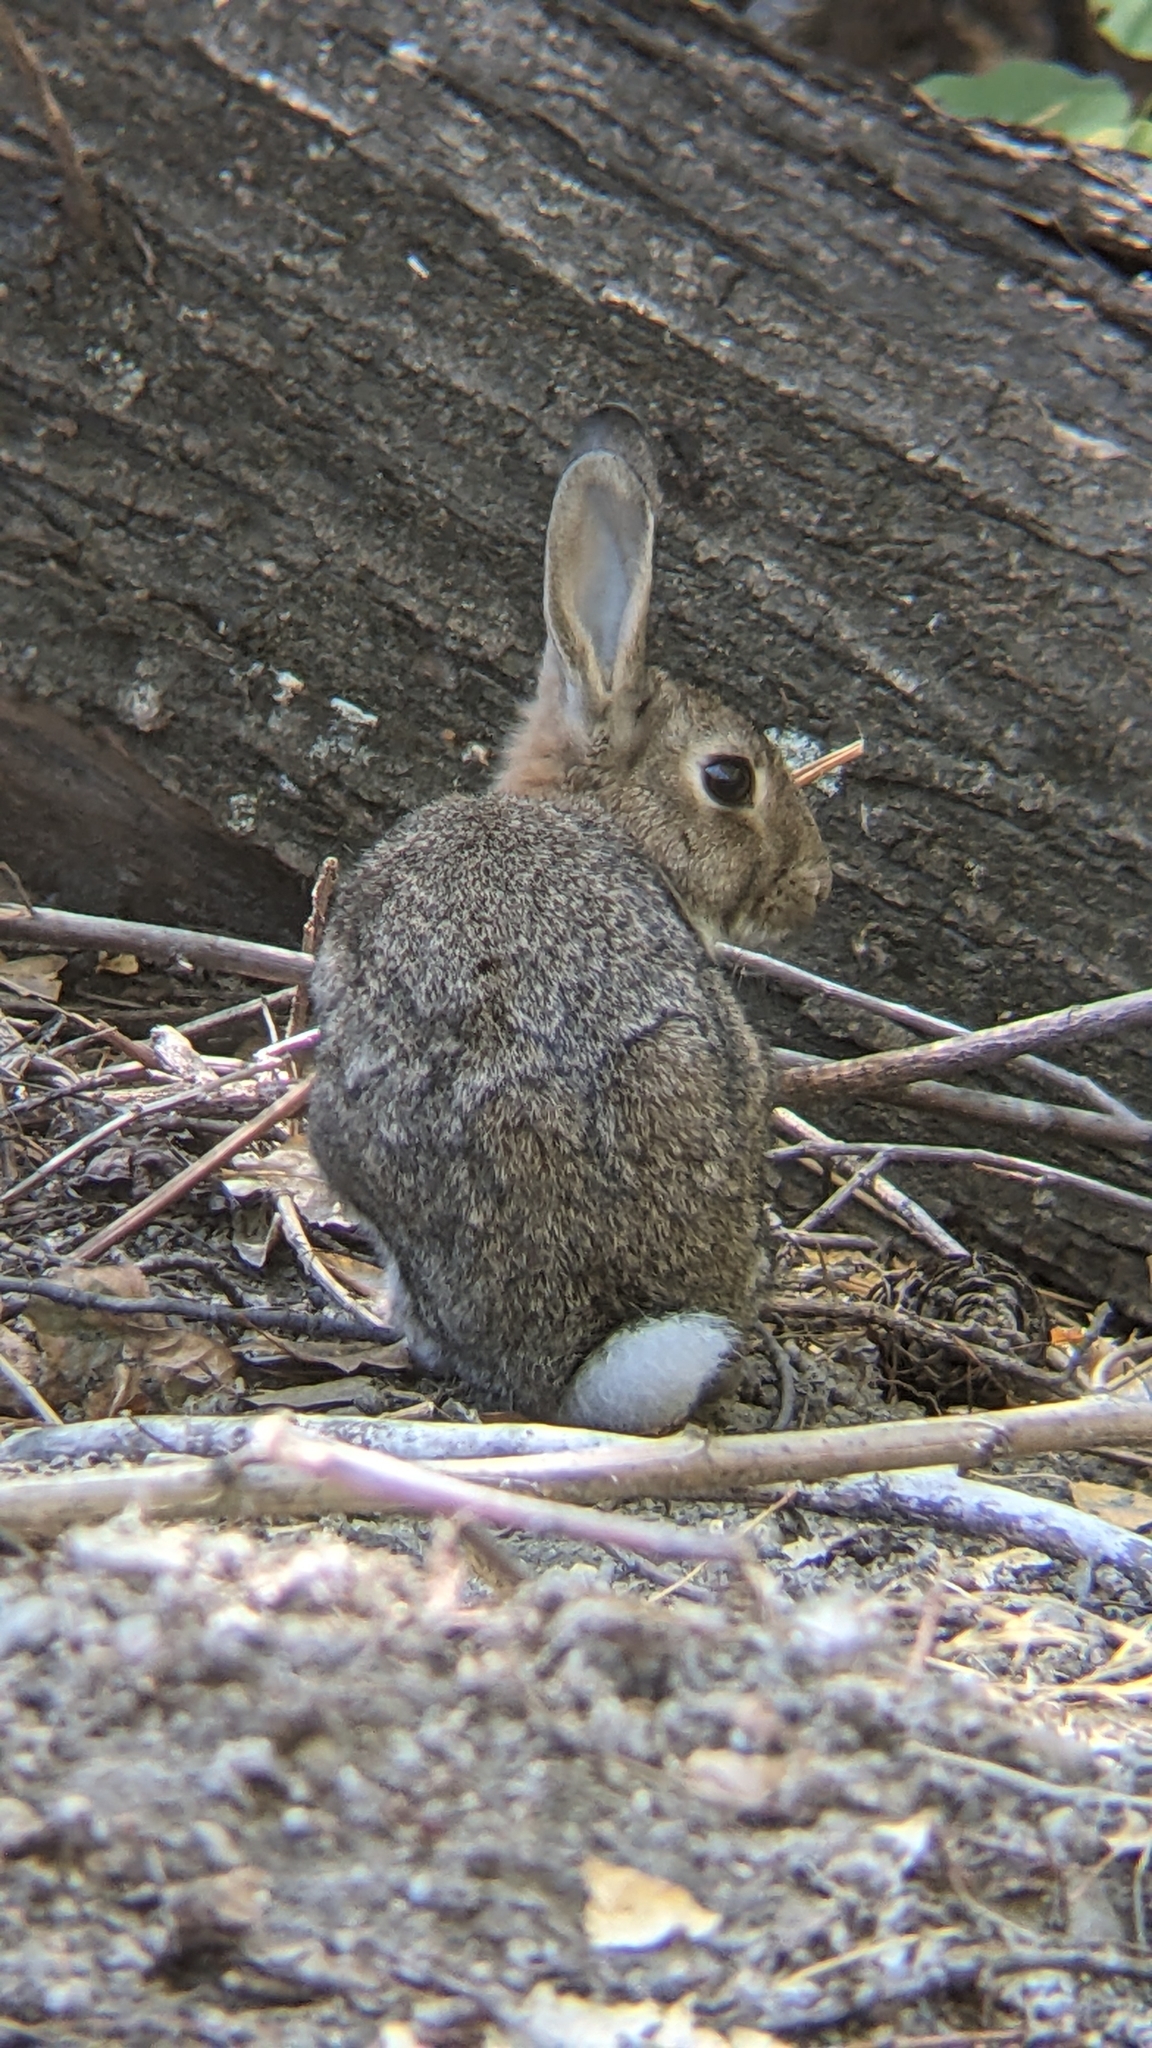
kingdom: Animalia
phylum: Chordata
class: Mammalia
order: Lagomorpha
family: Leporidae
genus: Oryctolagus
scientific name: Oryctolagus cuniculus
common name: European rabbit
